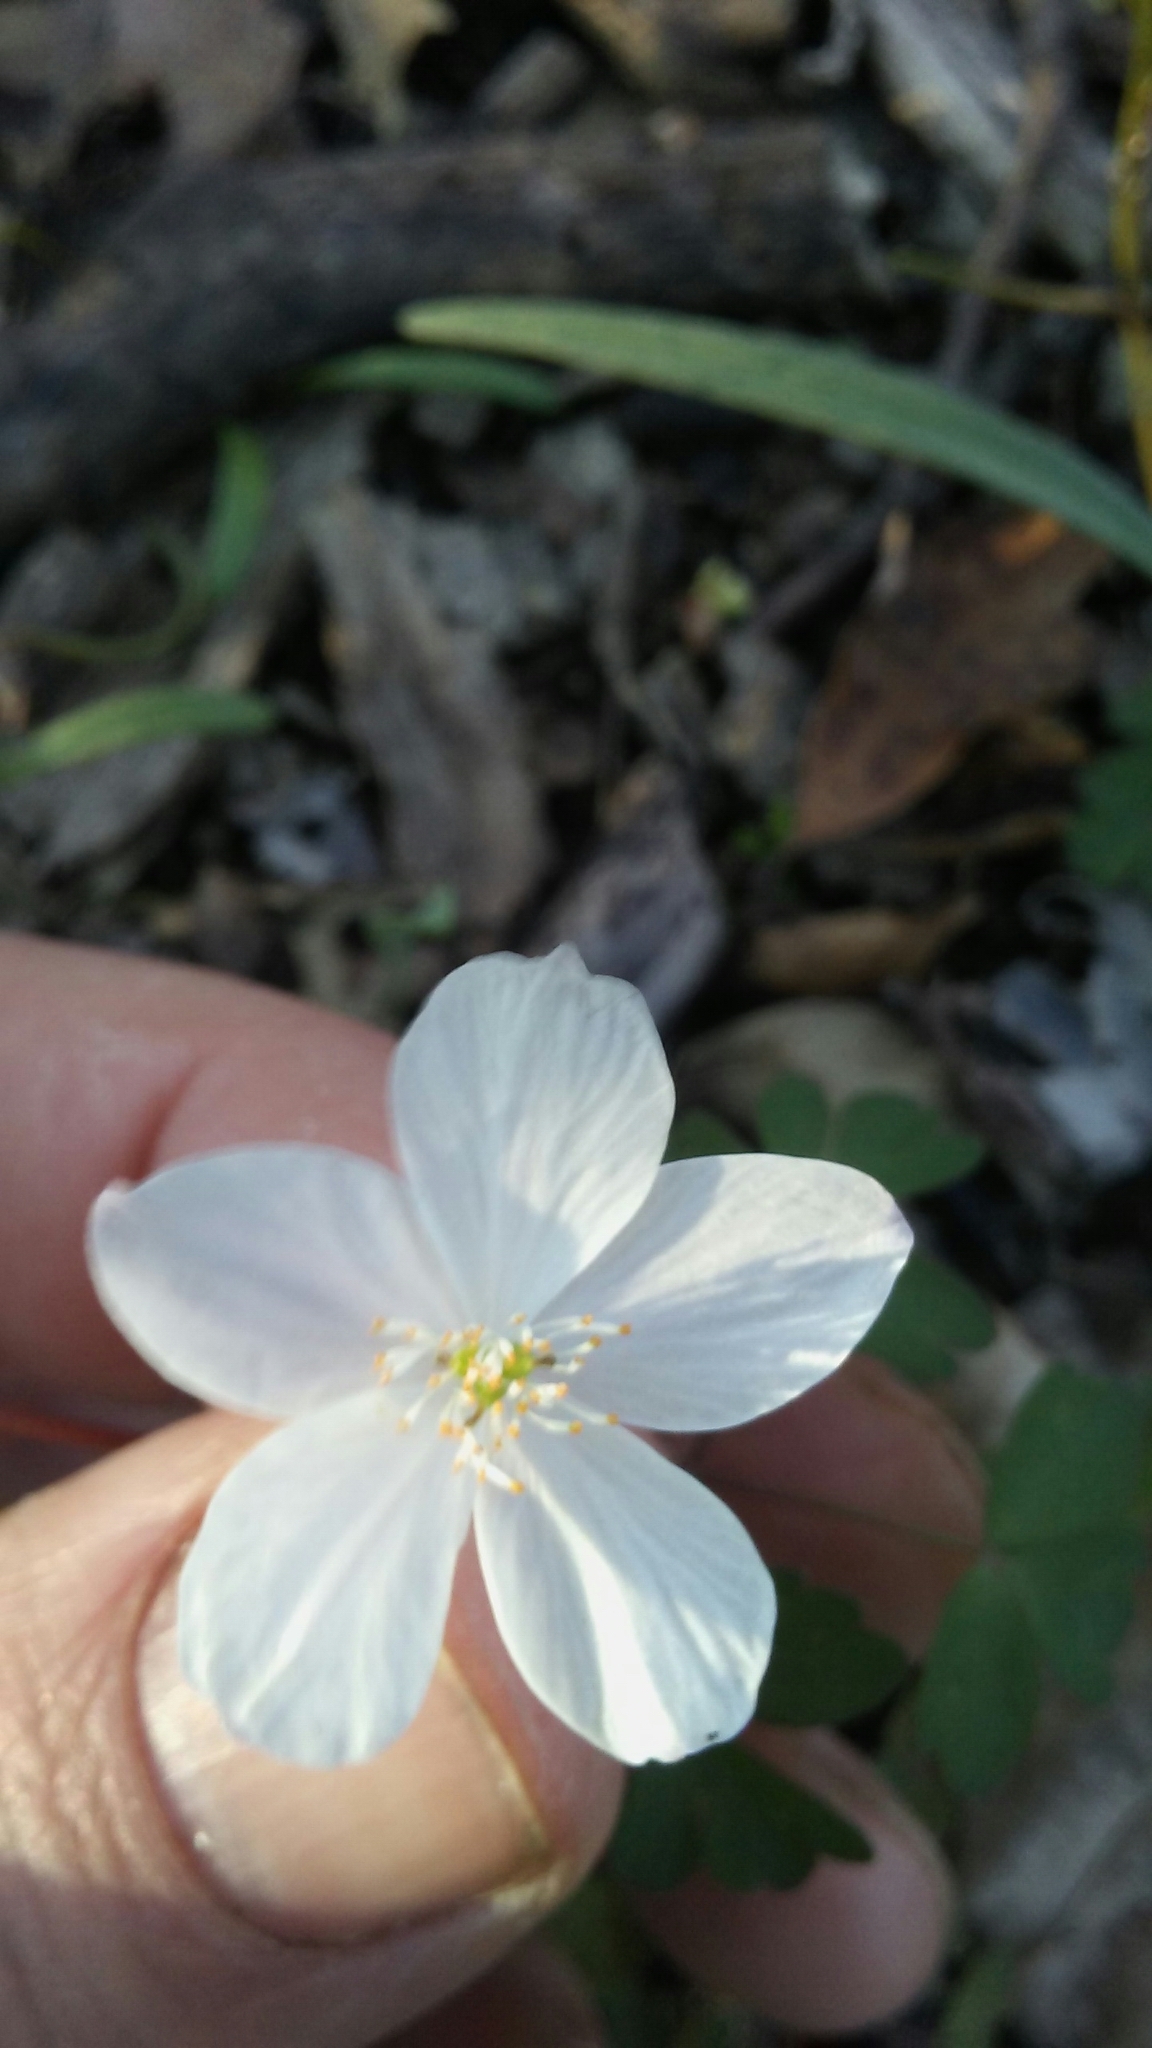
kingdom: Plantae
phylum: Tracheophyta
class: Magnoliopsida
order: Ranunculales
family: Ranunculaceae
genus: Enemion
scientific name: Enemion biternatum
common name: Eastern false rue-anemone
